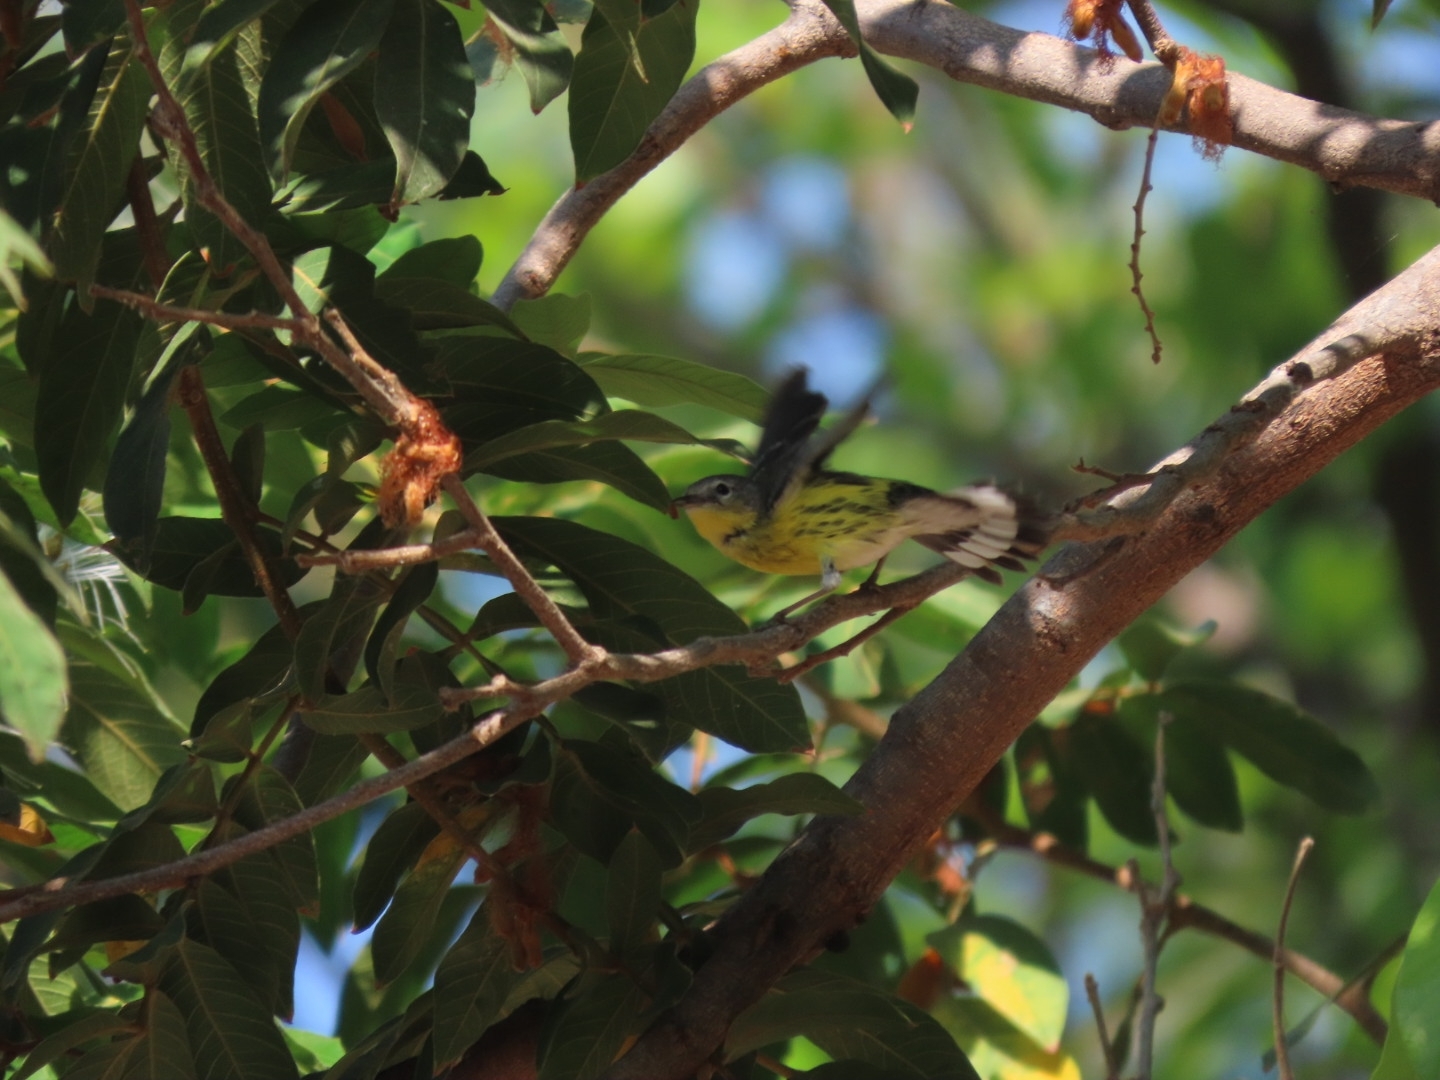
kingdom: Animalia
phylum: Chordata
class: Aves
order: Passeriformes
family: Parulidae
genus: Setophaga
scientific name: Setophaga magnolia
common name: Magnolia warbler
